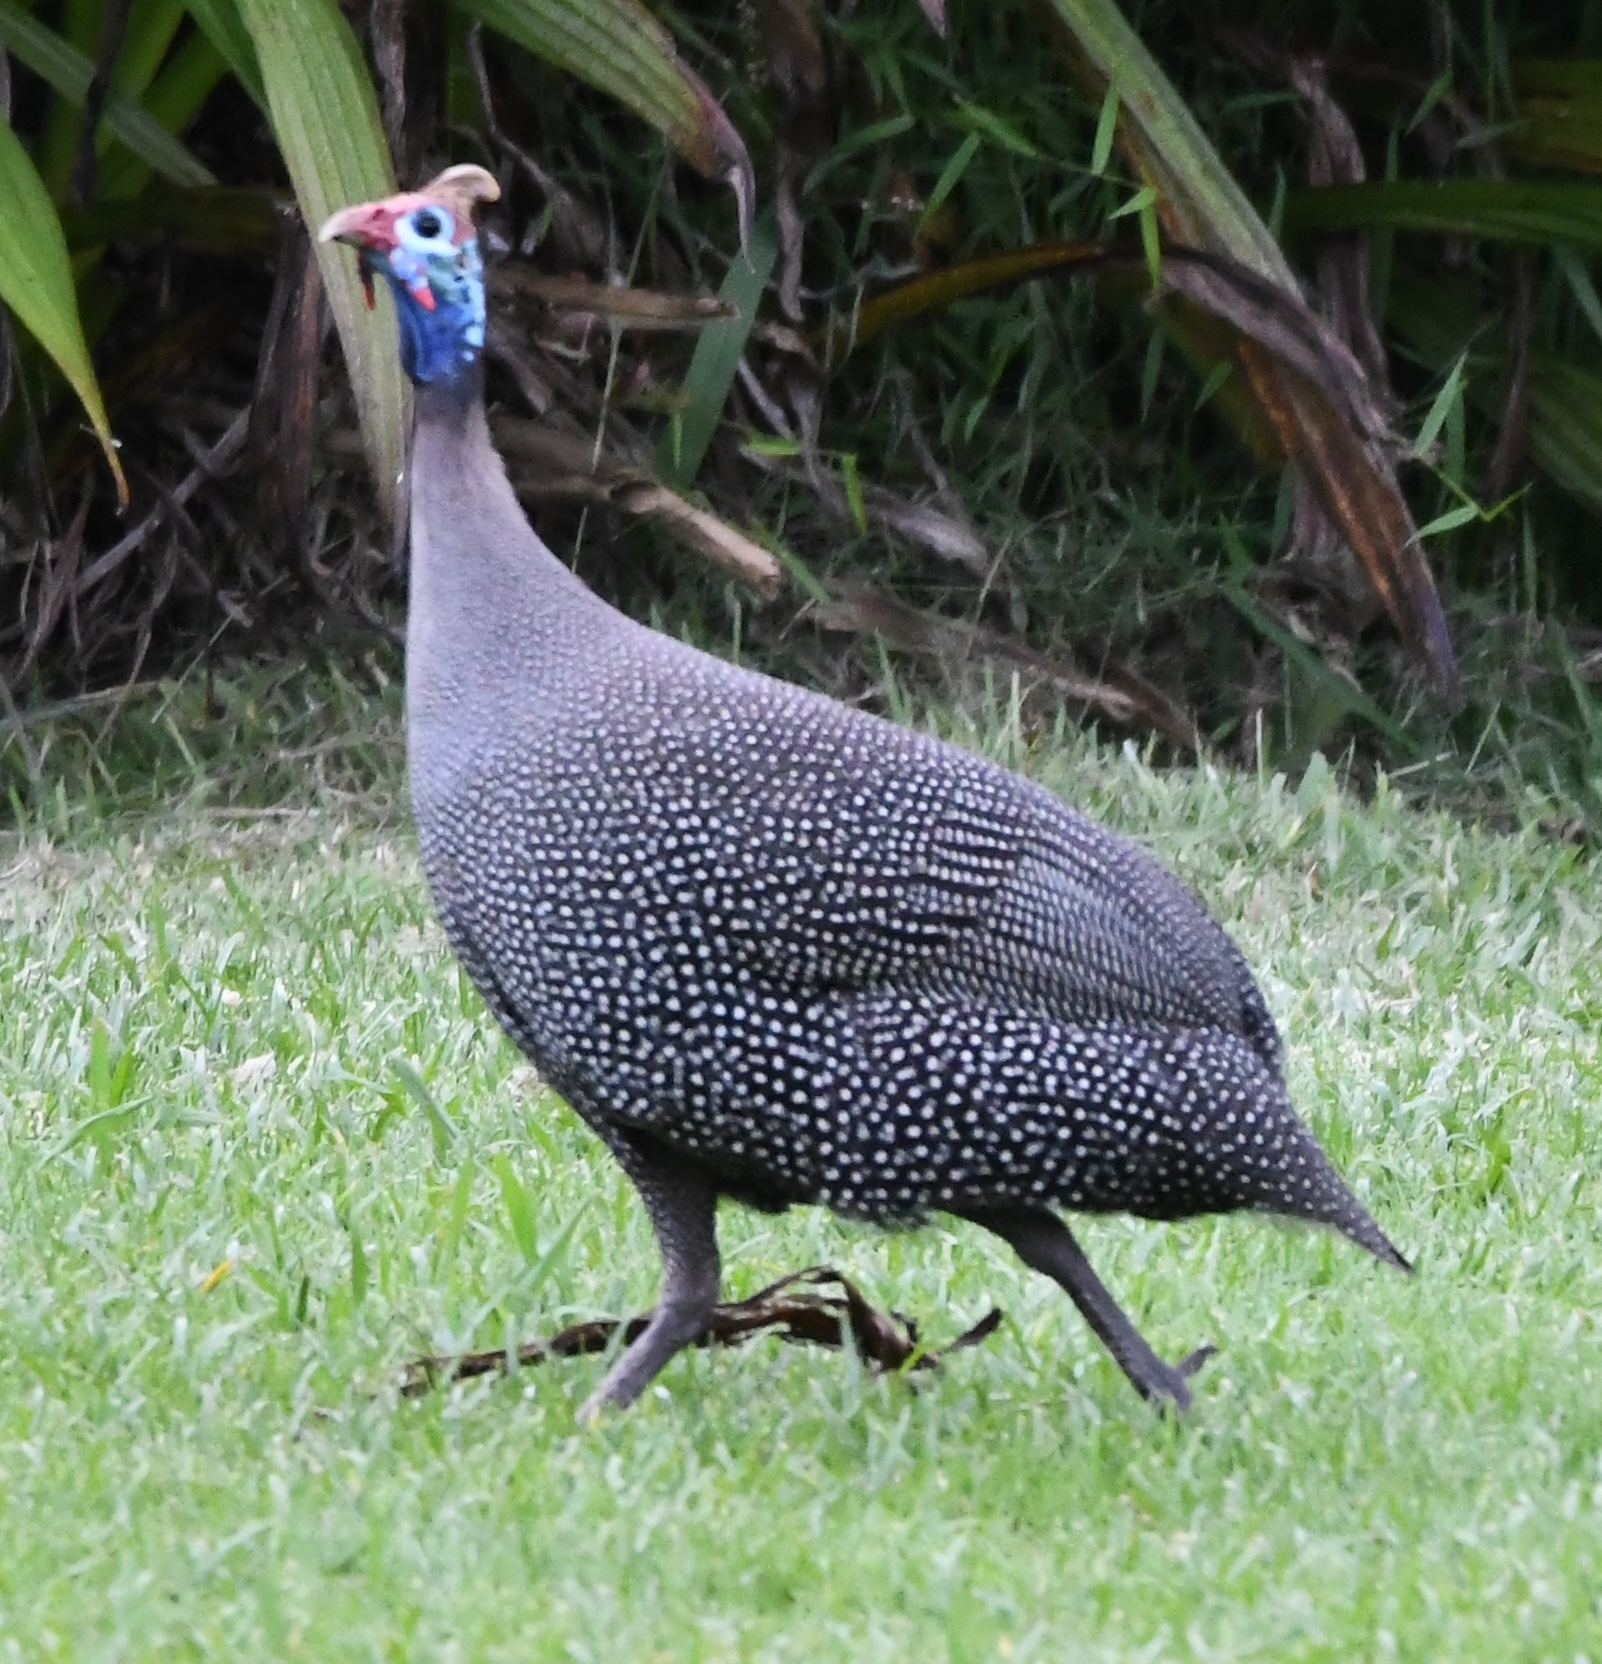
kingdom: Animalia
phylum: Chordata
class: Aves
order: Galliformes
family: Numididae
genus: Numida
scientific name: Numida meleagris
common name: Helmeted guineafowl
